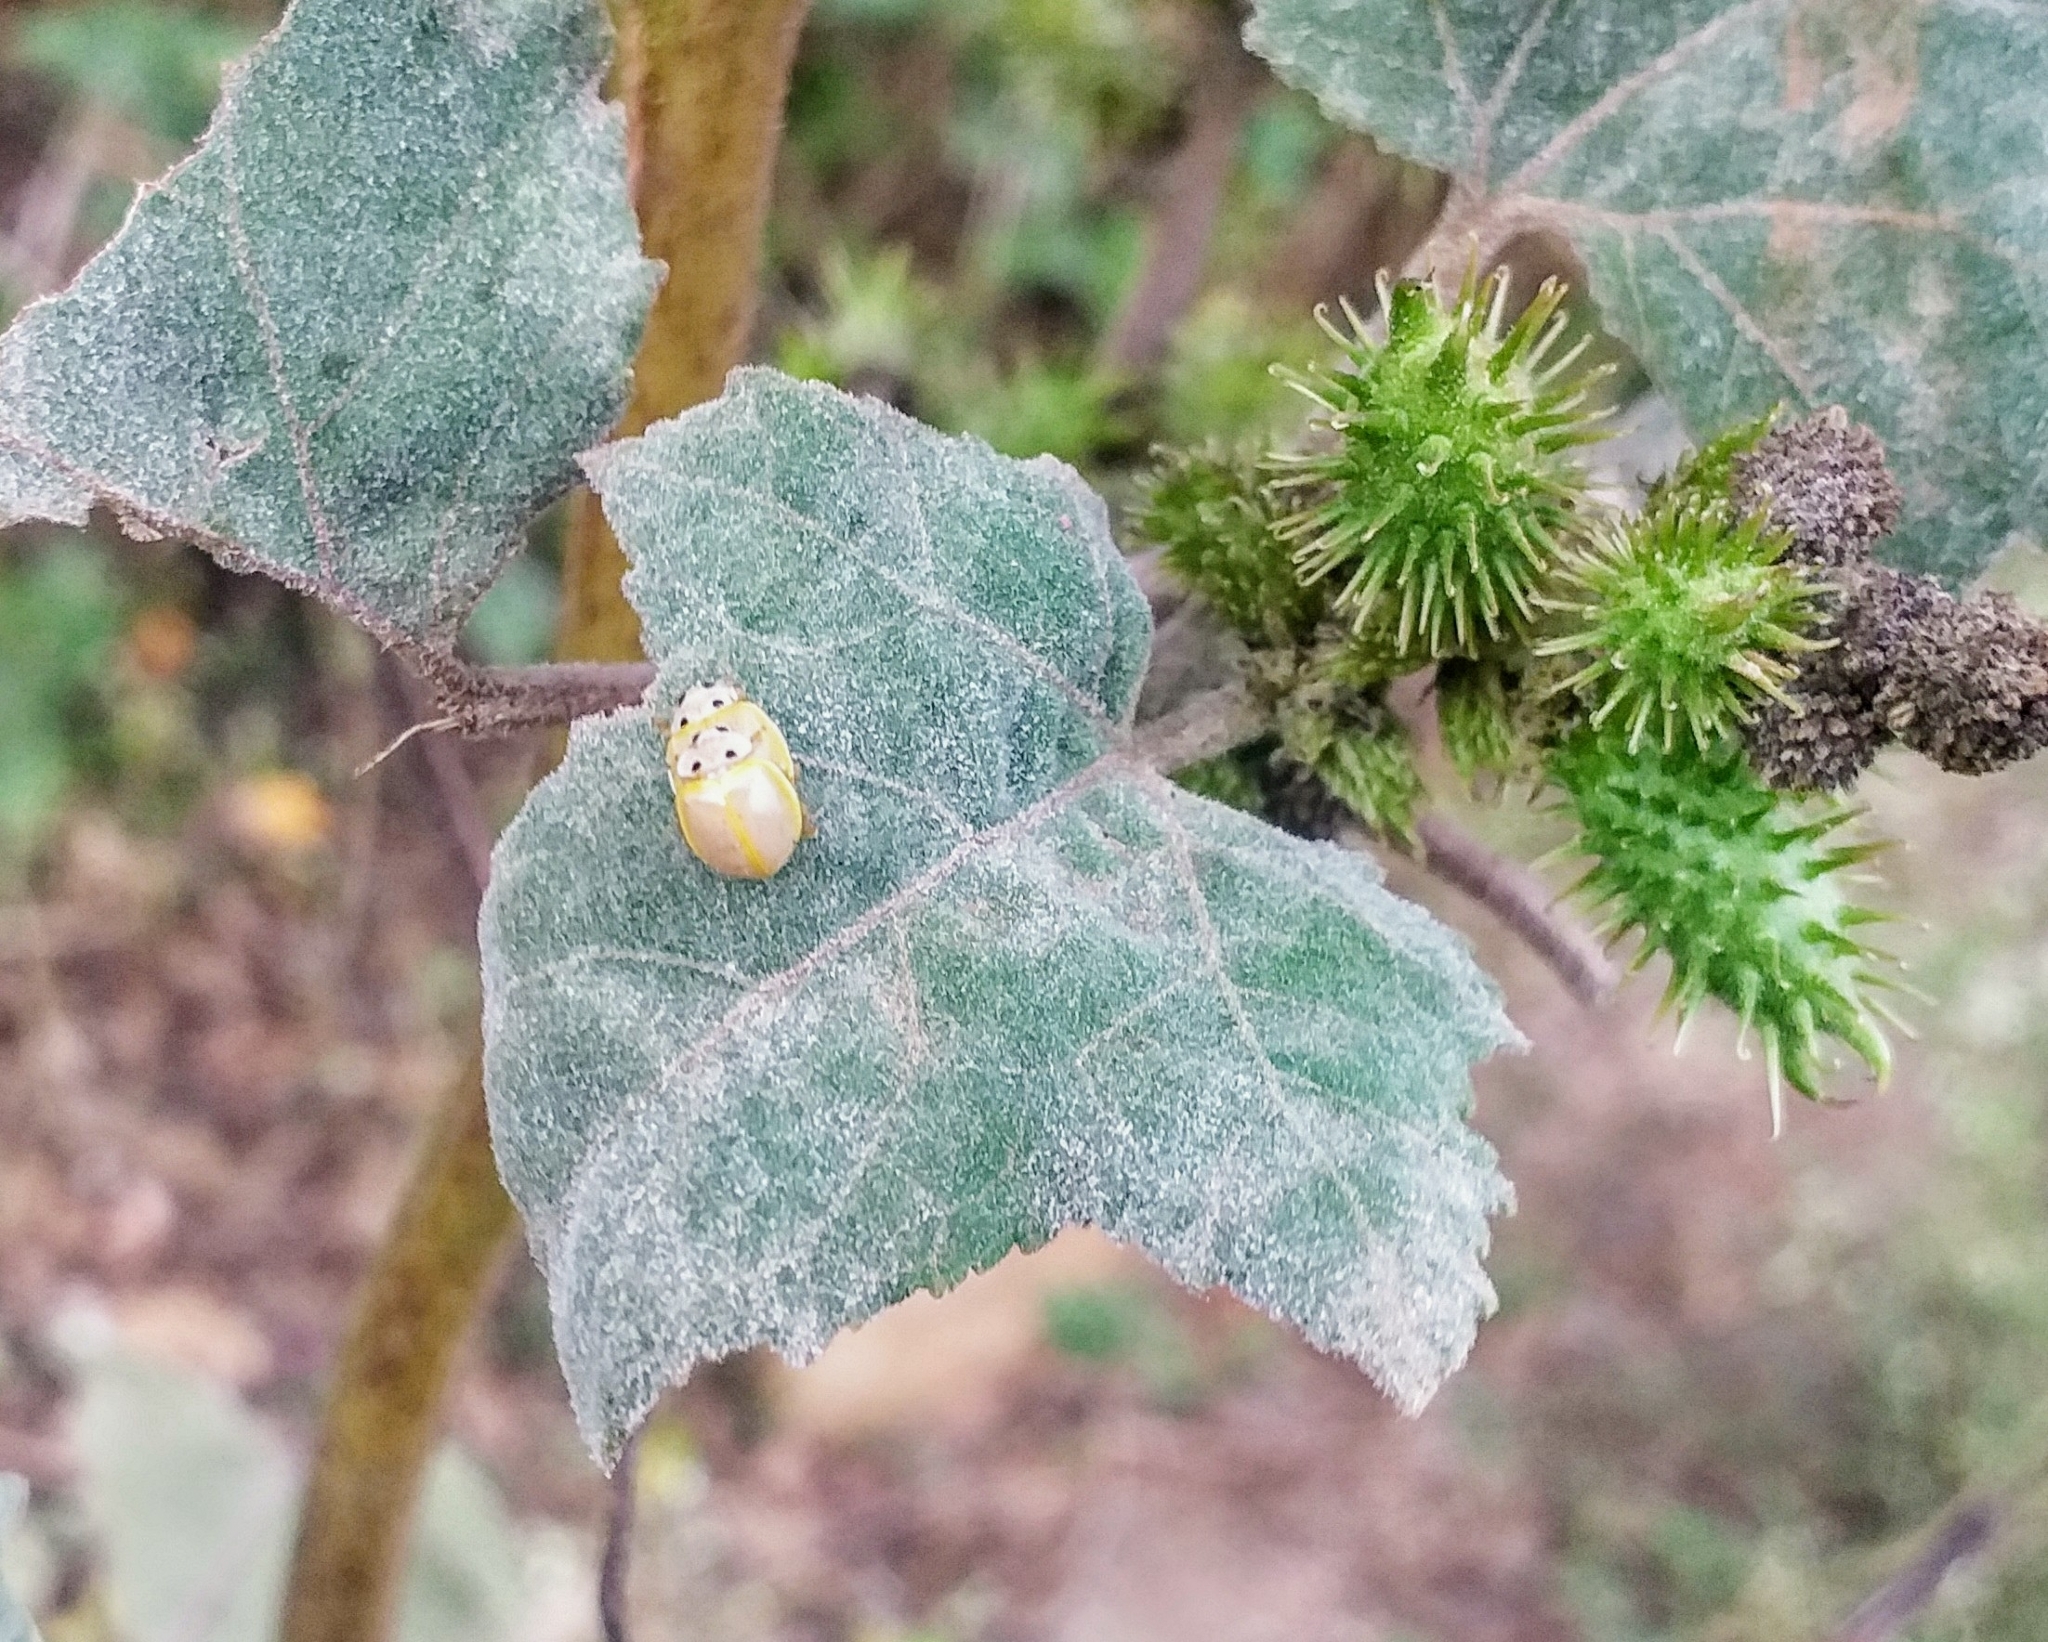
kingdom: Animalia
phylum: Arthropoda
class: Insecta
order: Coleoptera
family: Coccinellidae
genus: Illeis
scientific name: Illeis cincta
